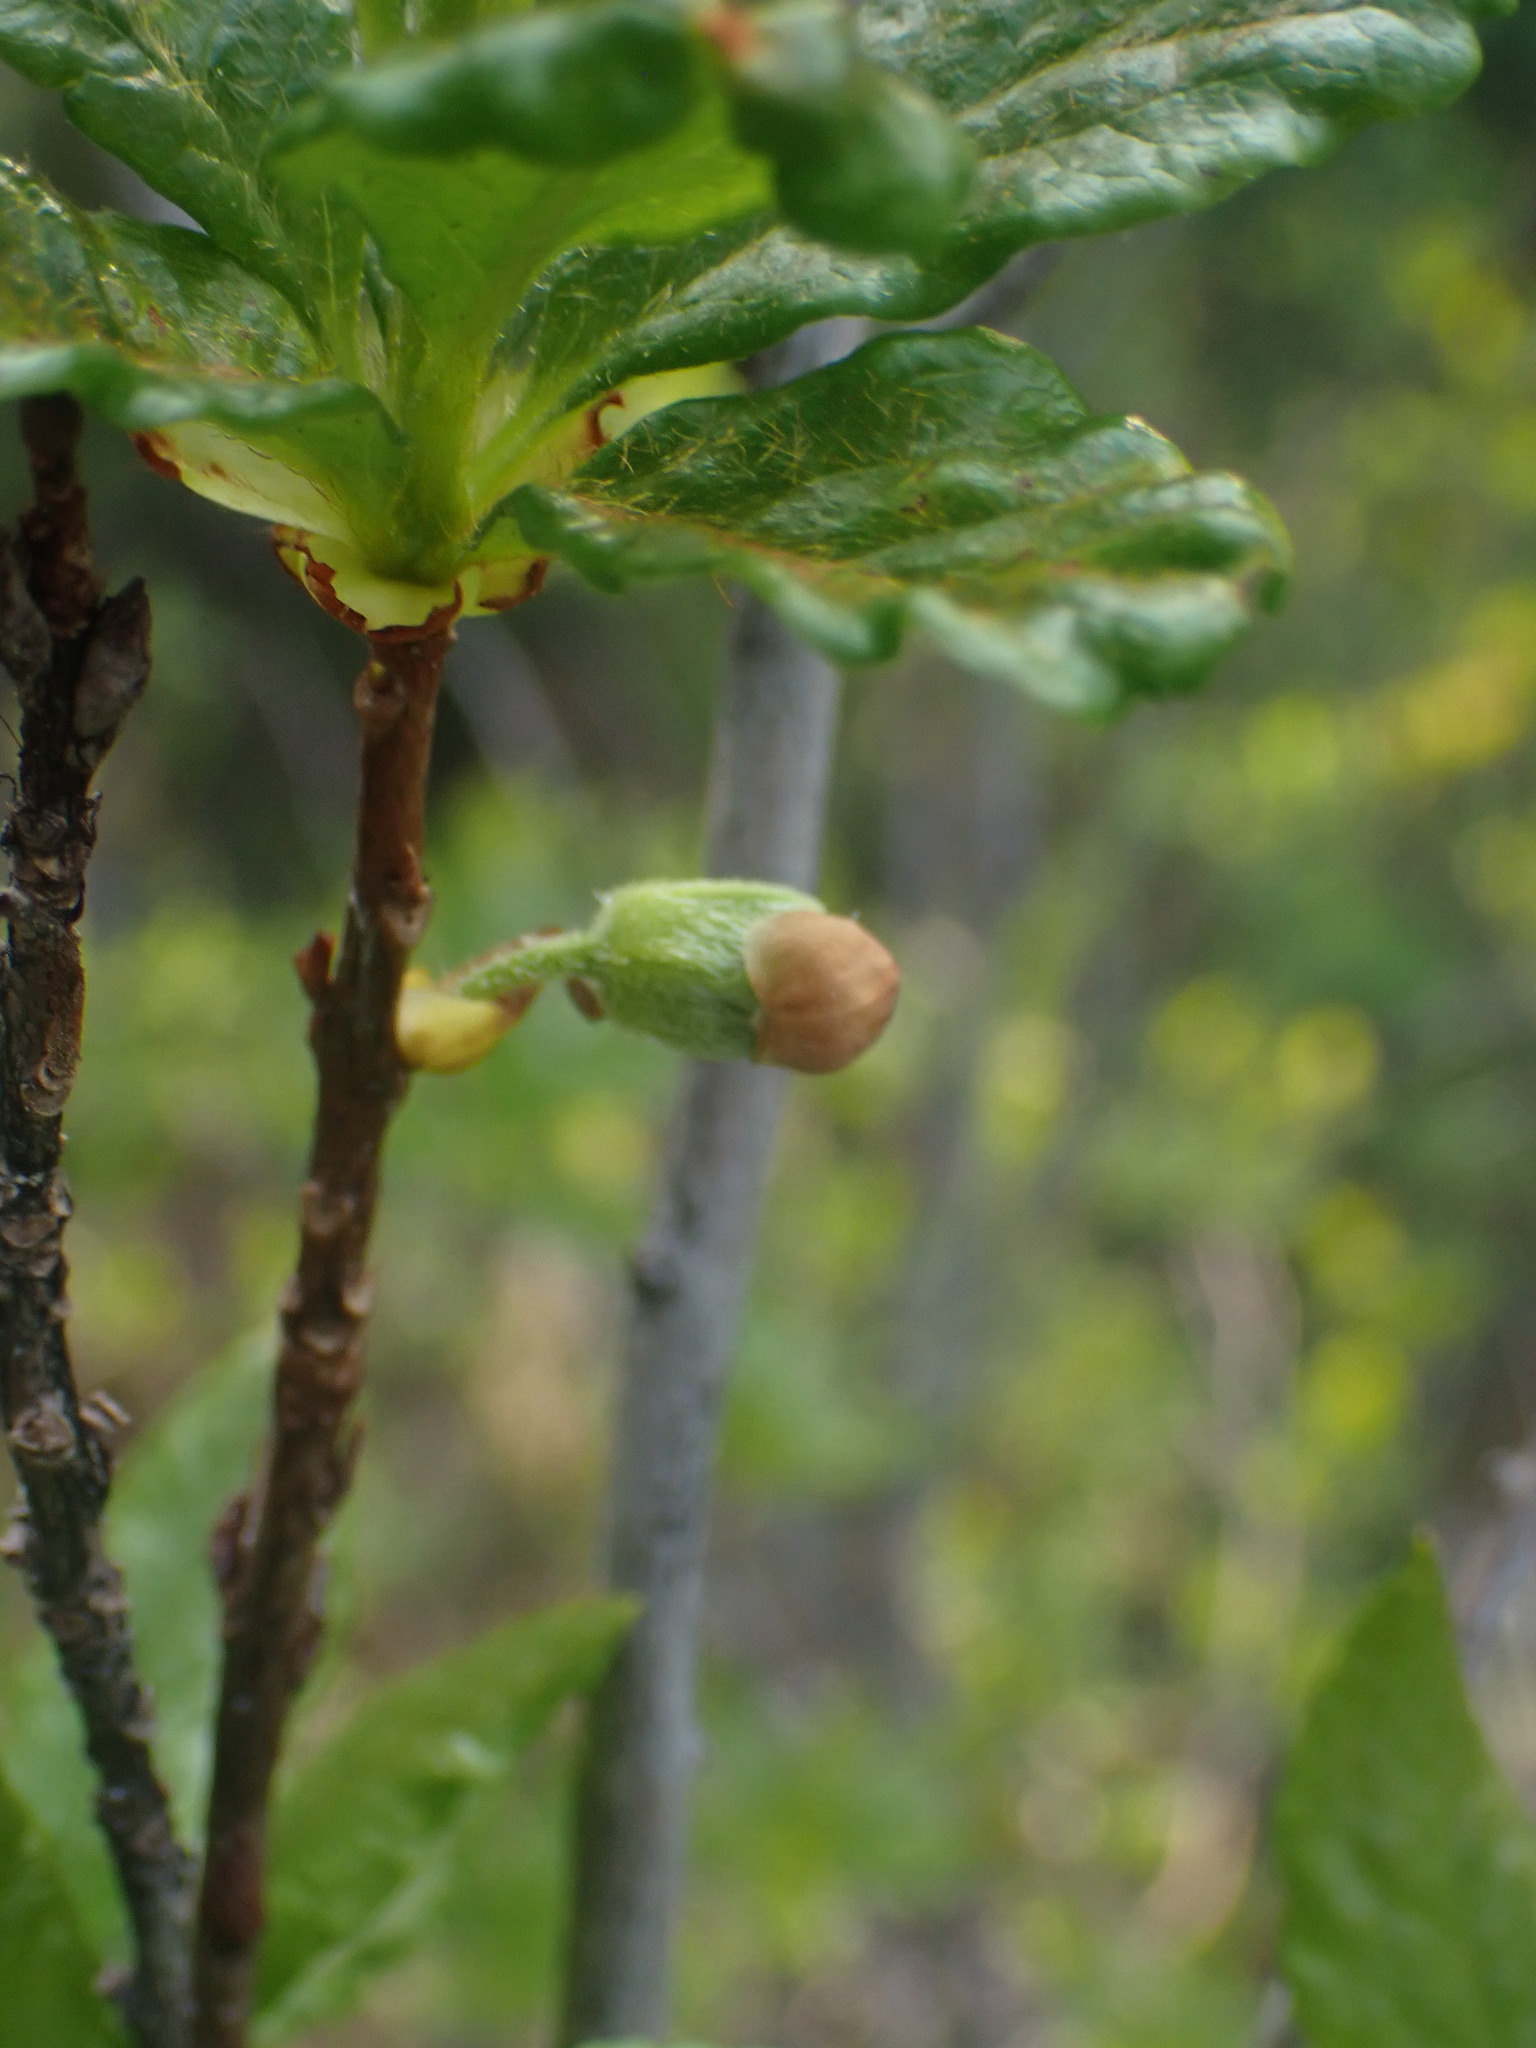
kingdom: Plantae
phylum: Tracheophyta
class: Magnoliopsida
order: Ericales
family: Ericaceae
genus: Rhododendron
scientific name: Rhododendron albiflorum
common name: White rhododendron
